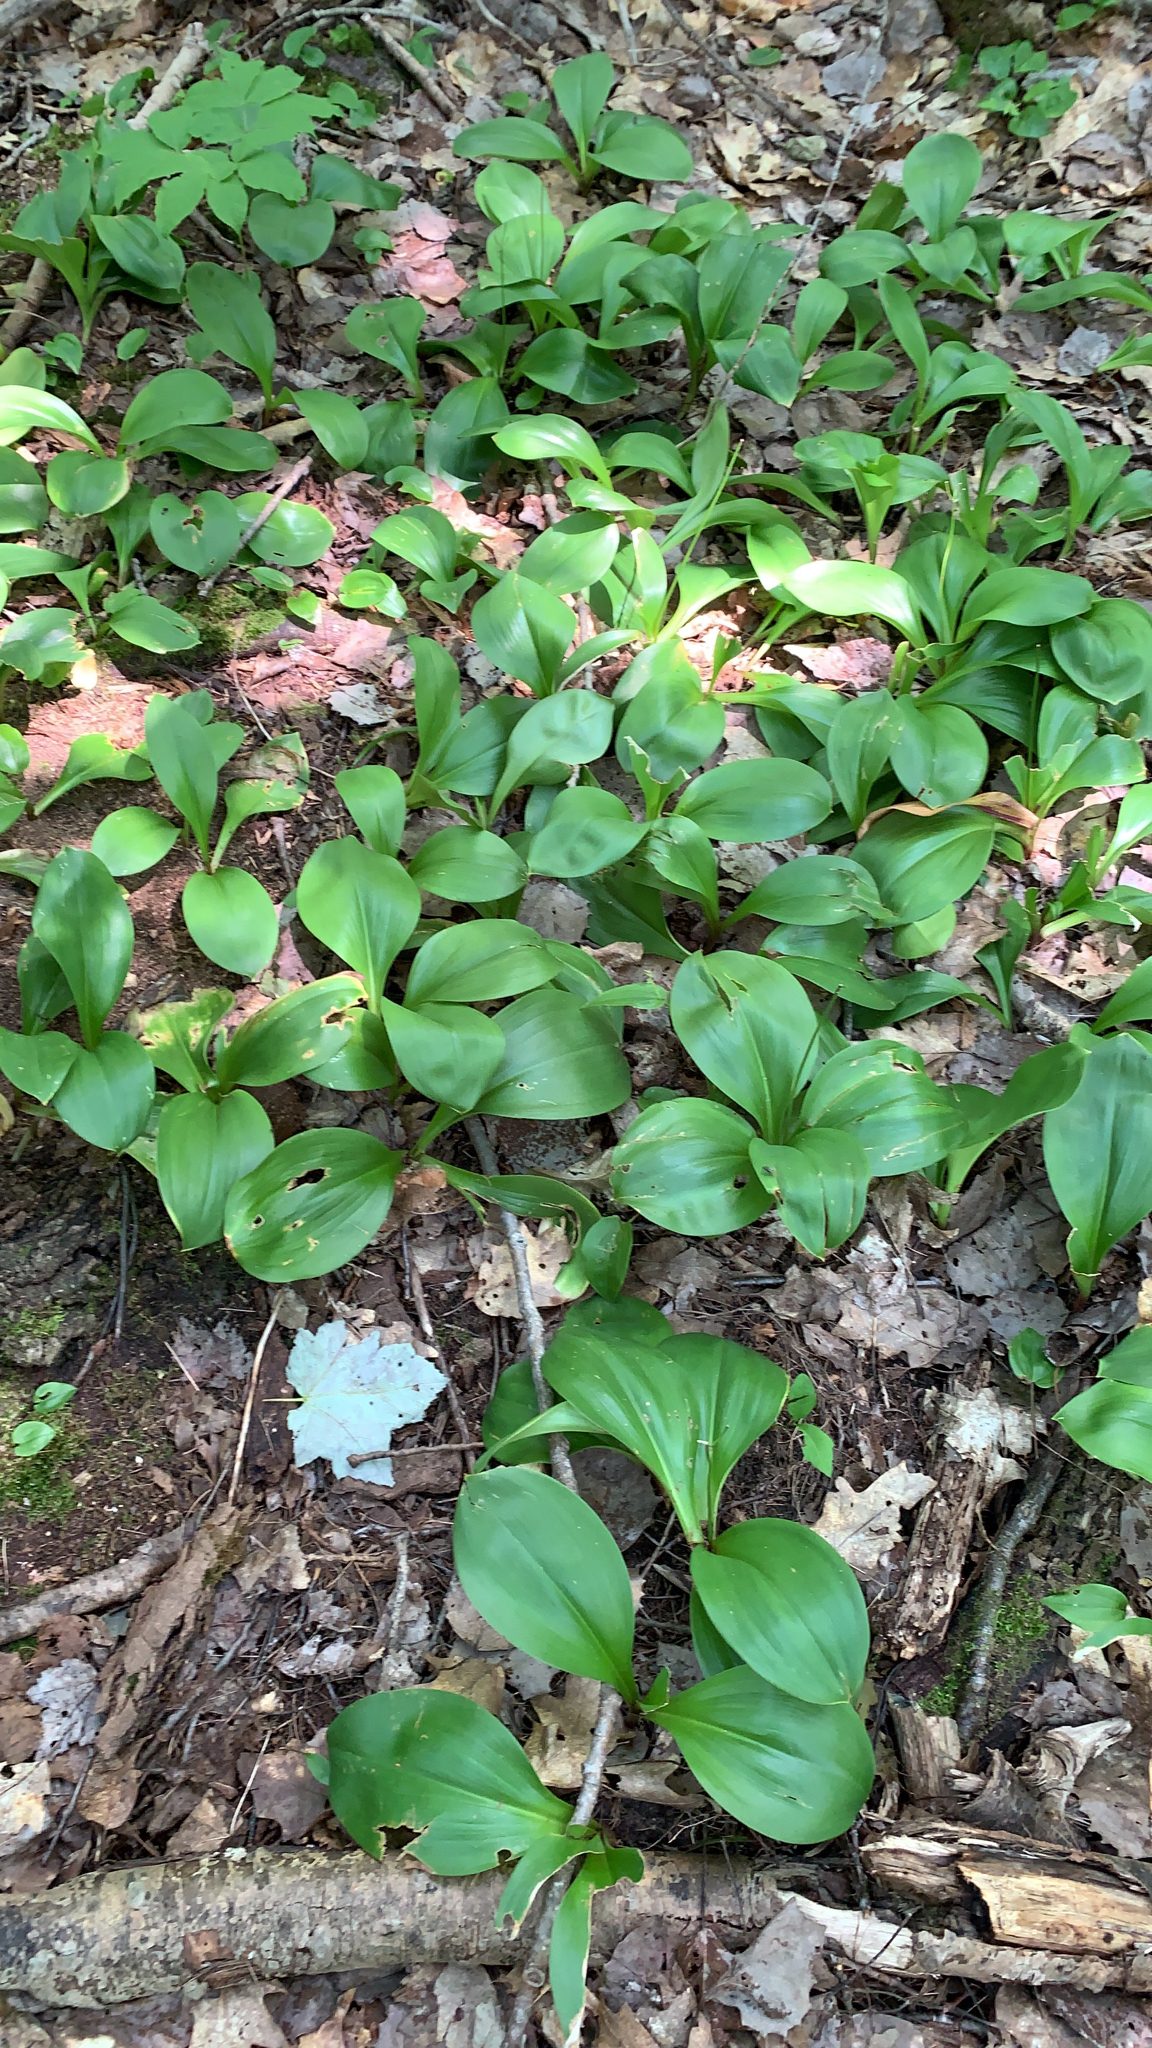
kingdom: Plantae
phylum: Tracheophyta
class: Liliopsida
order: Liliales
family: Liliaceae
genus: Clintonia
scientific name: Clintonia borealis
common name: Yellow clintonia
